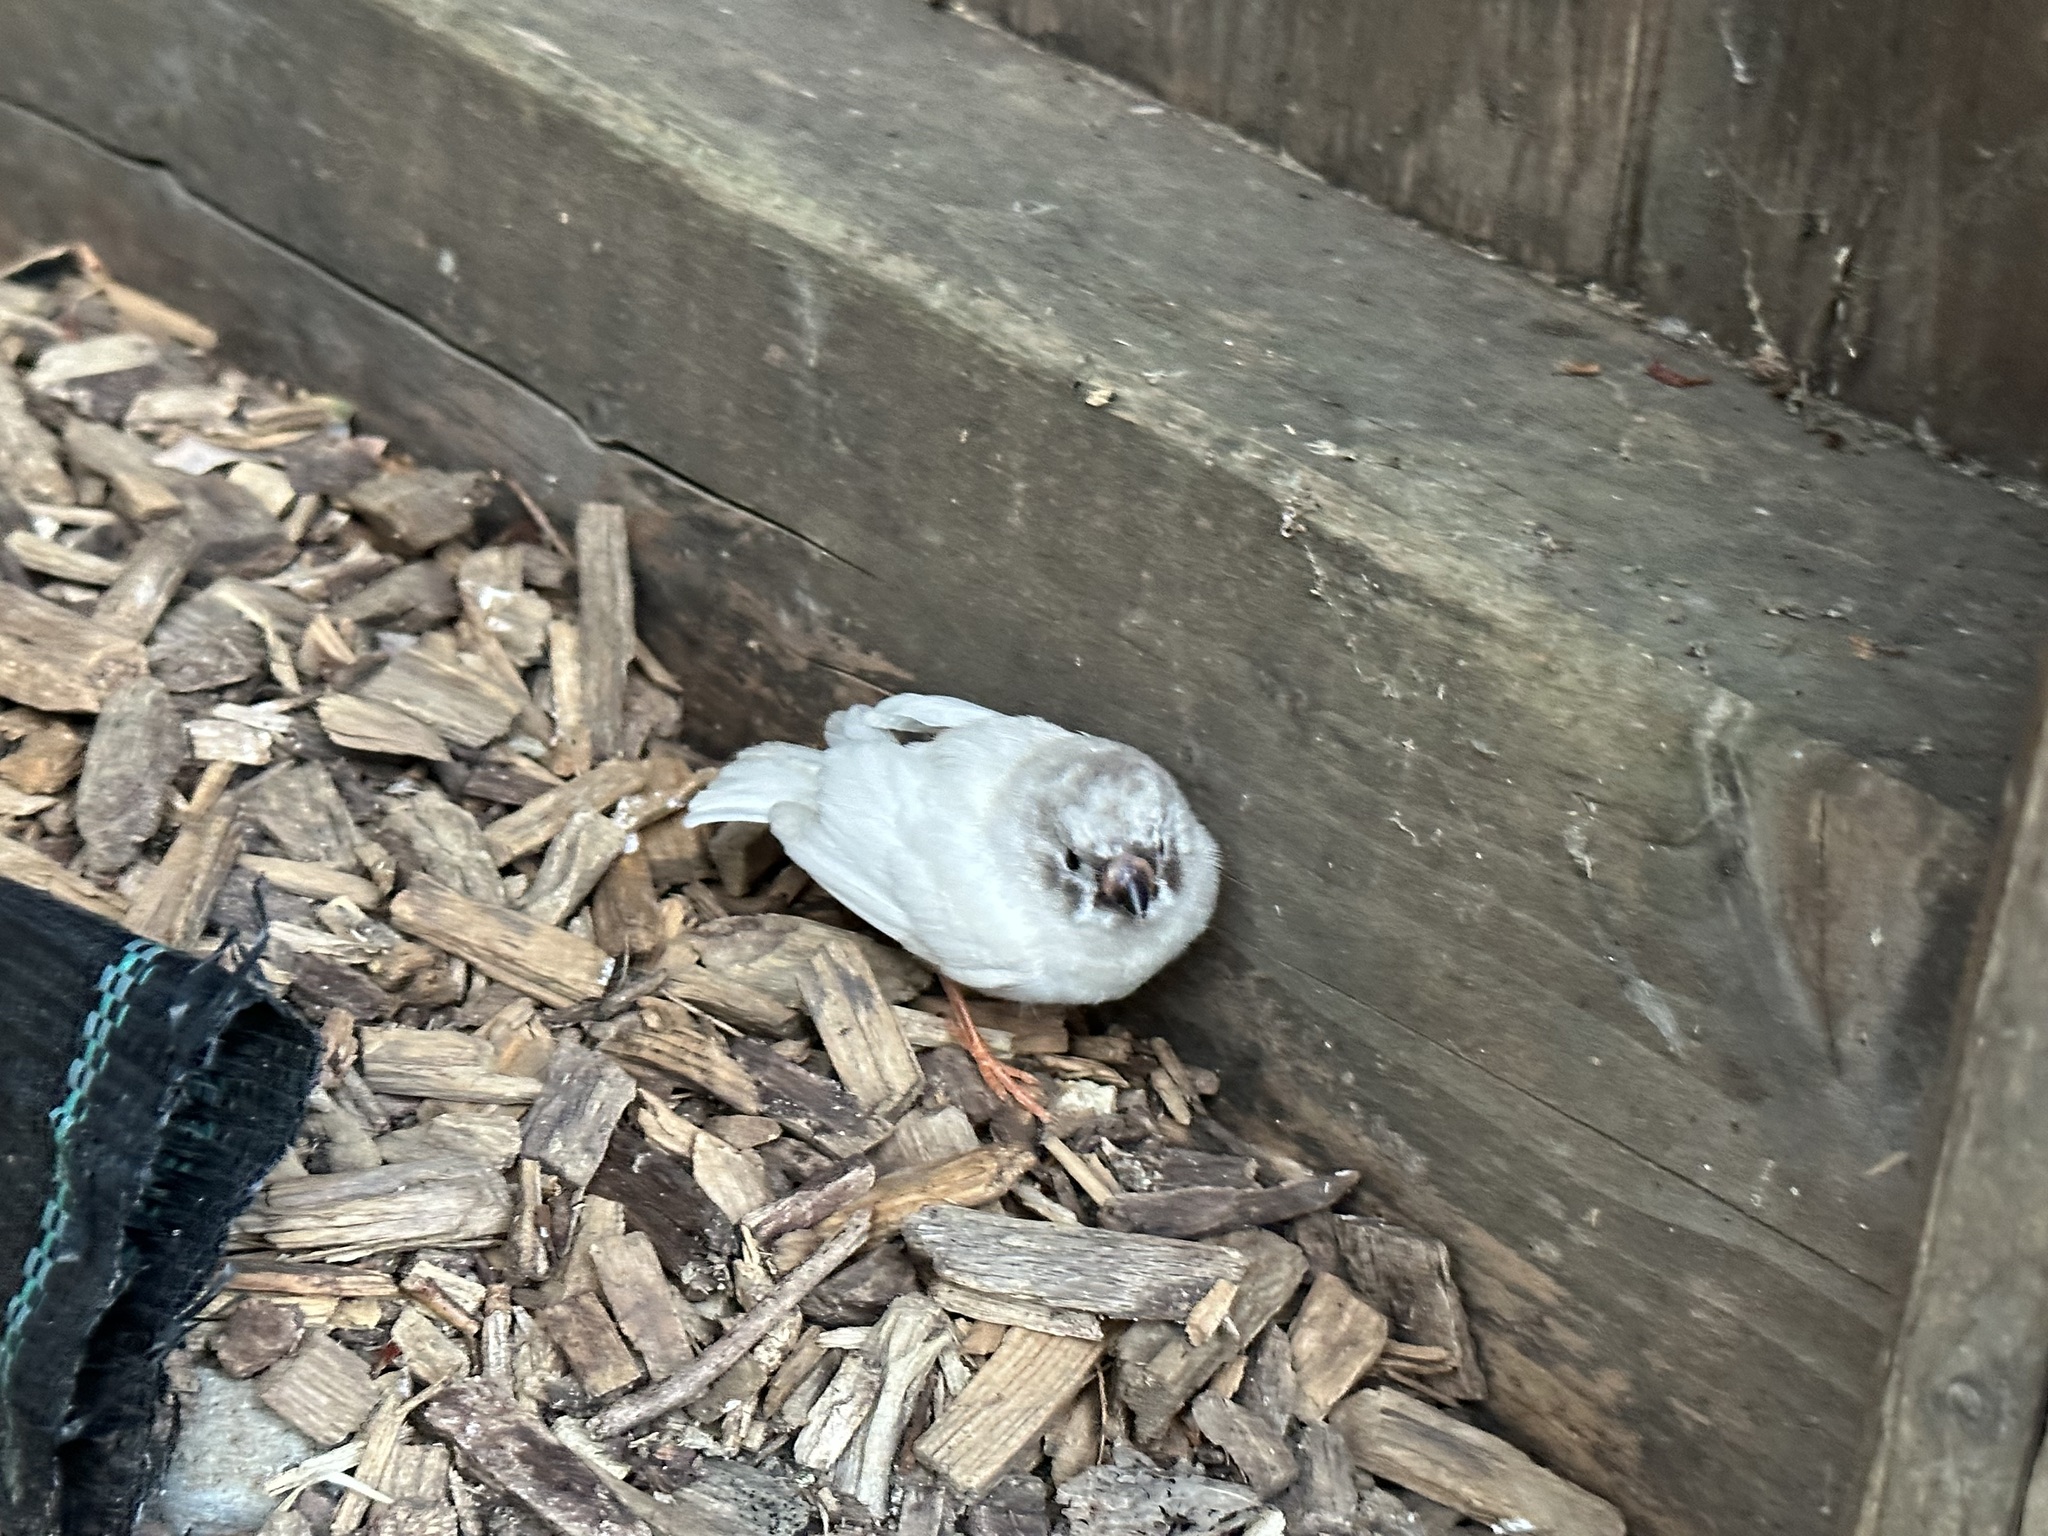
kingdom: Animalia
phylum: Chordata
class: Aves
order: Passeriformes
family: Estrildidae
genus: Taeniopygia
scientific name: Taeniopygia guttata
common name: Zebra finch
